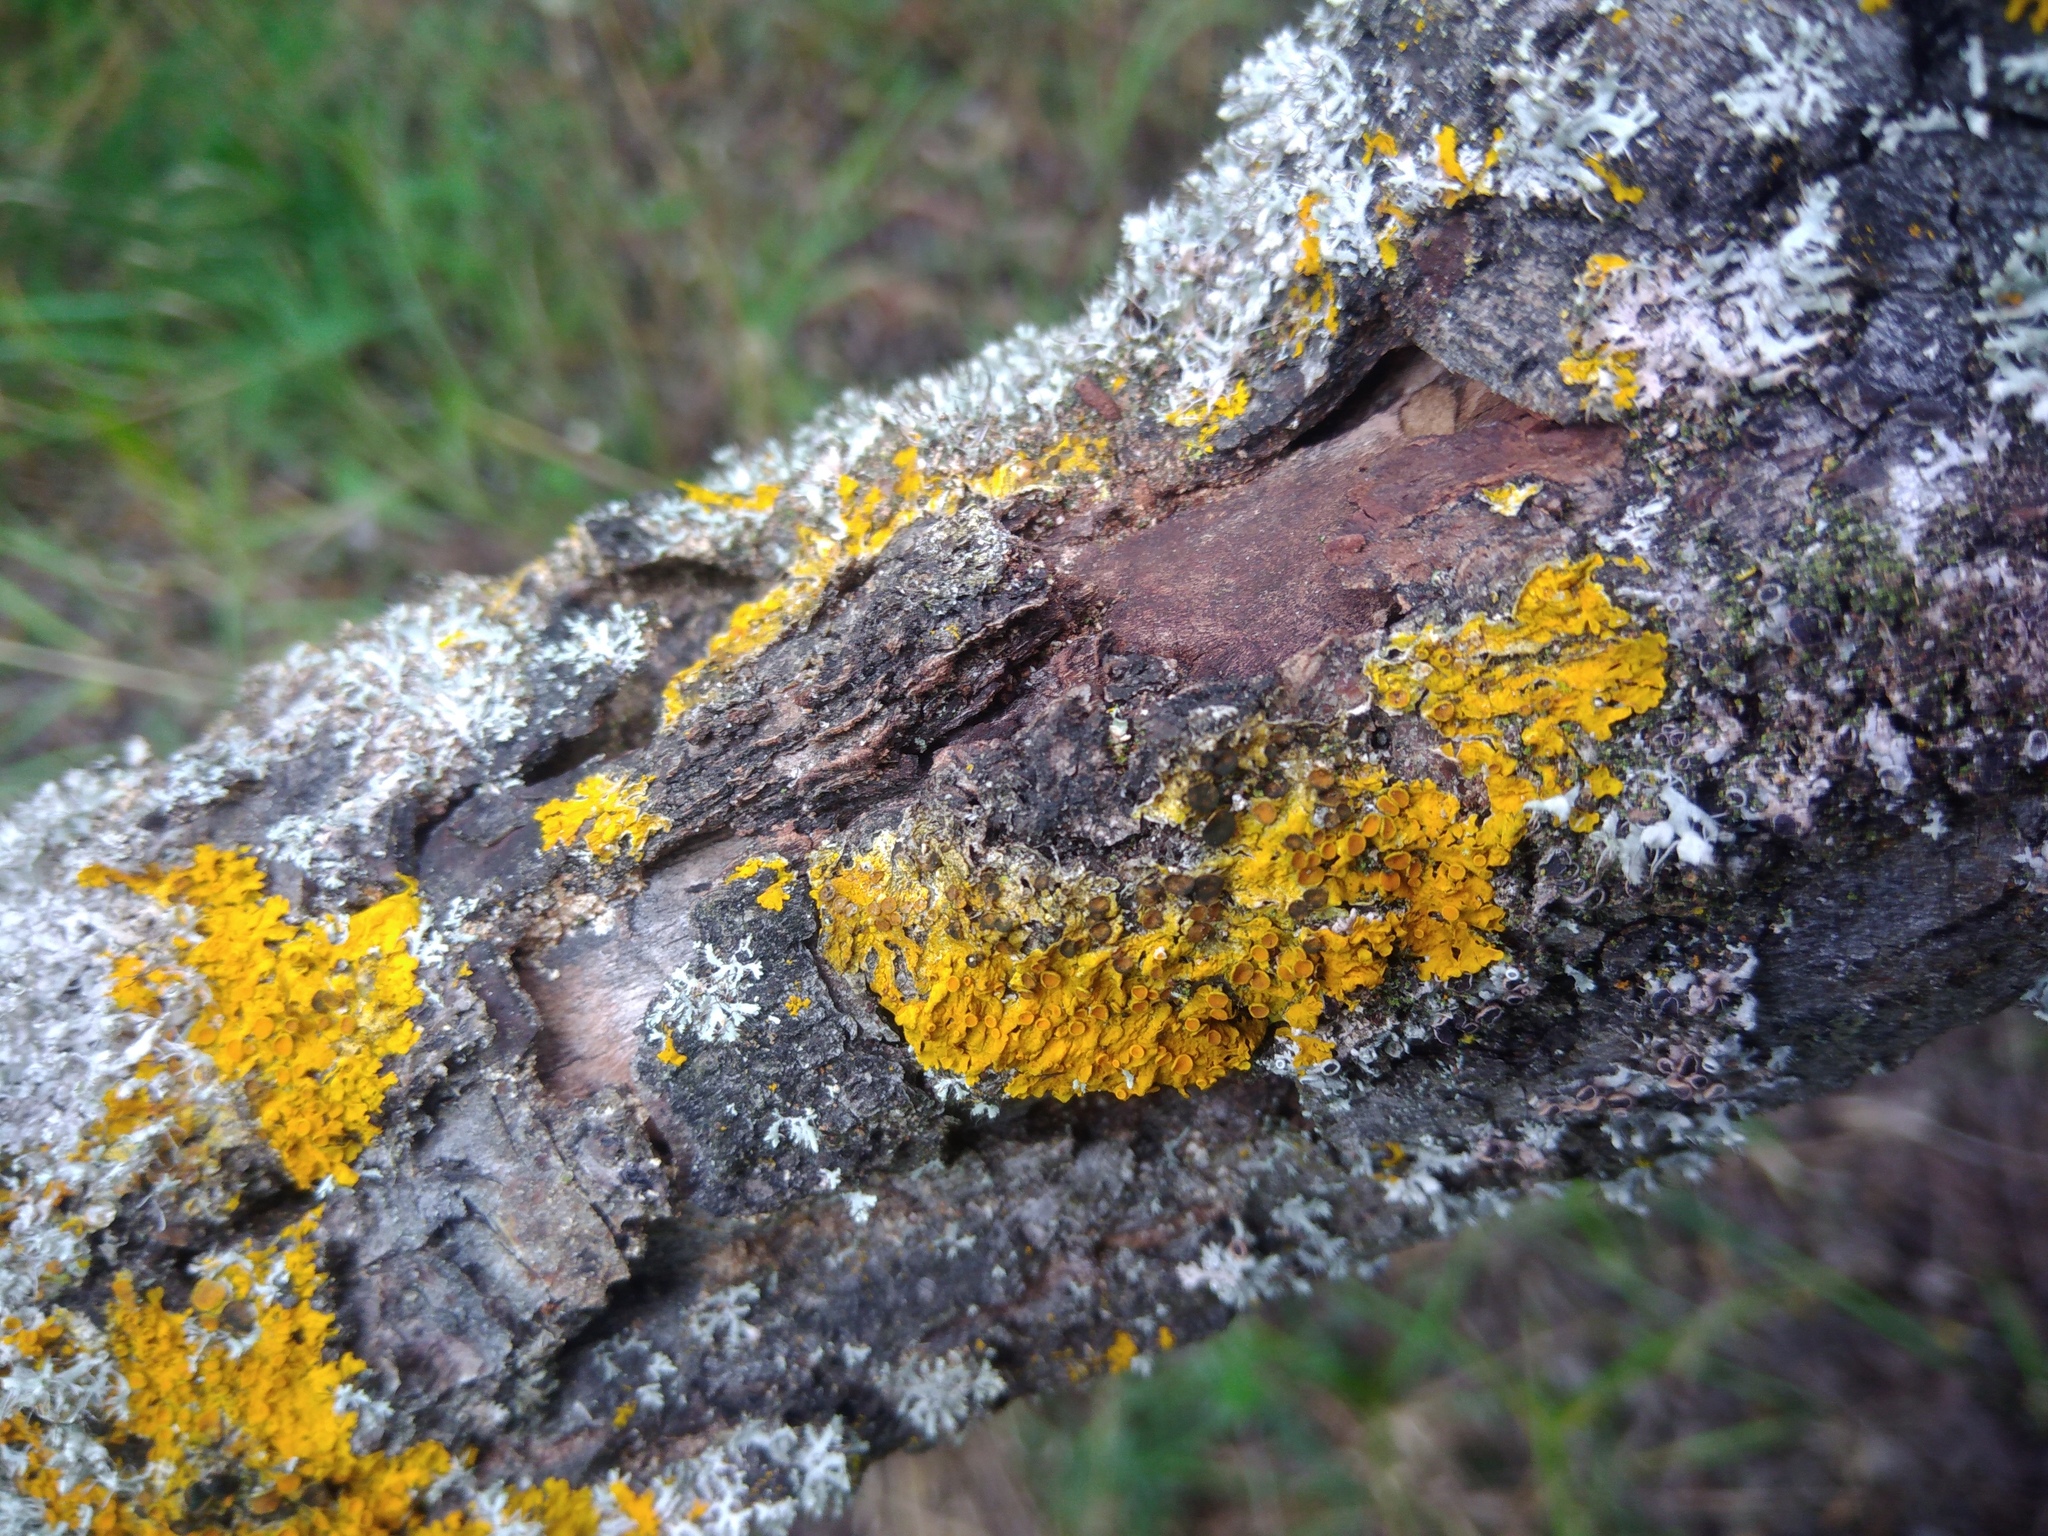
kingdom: Fungi
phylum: Ascomycota
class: Dothideomycetes
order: Mycosphaerellales
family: Teratosphaeriaceae
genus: Xanthoriicola
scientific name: Xanthoriicola physciae
